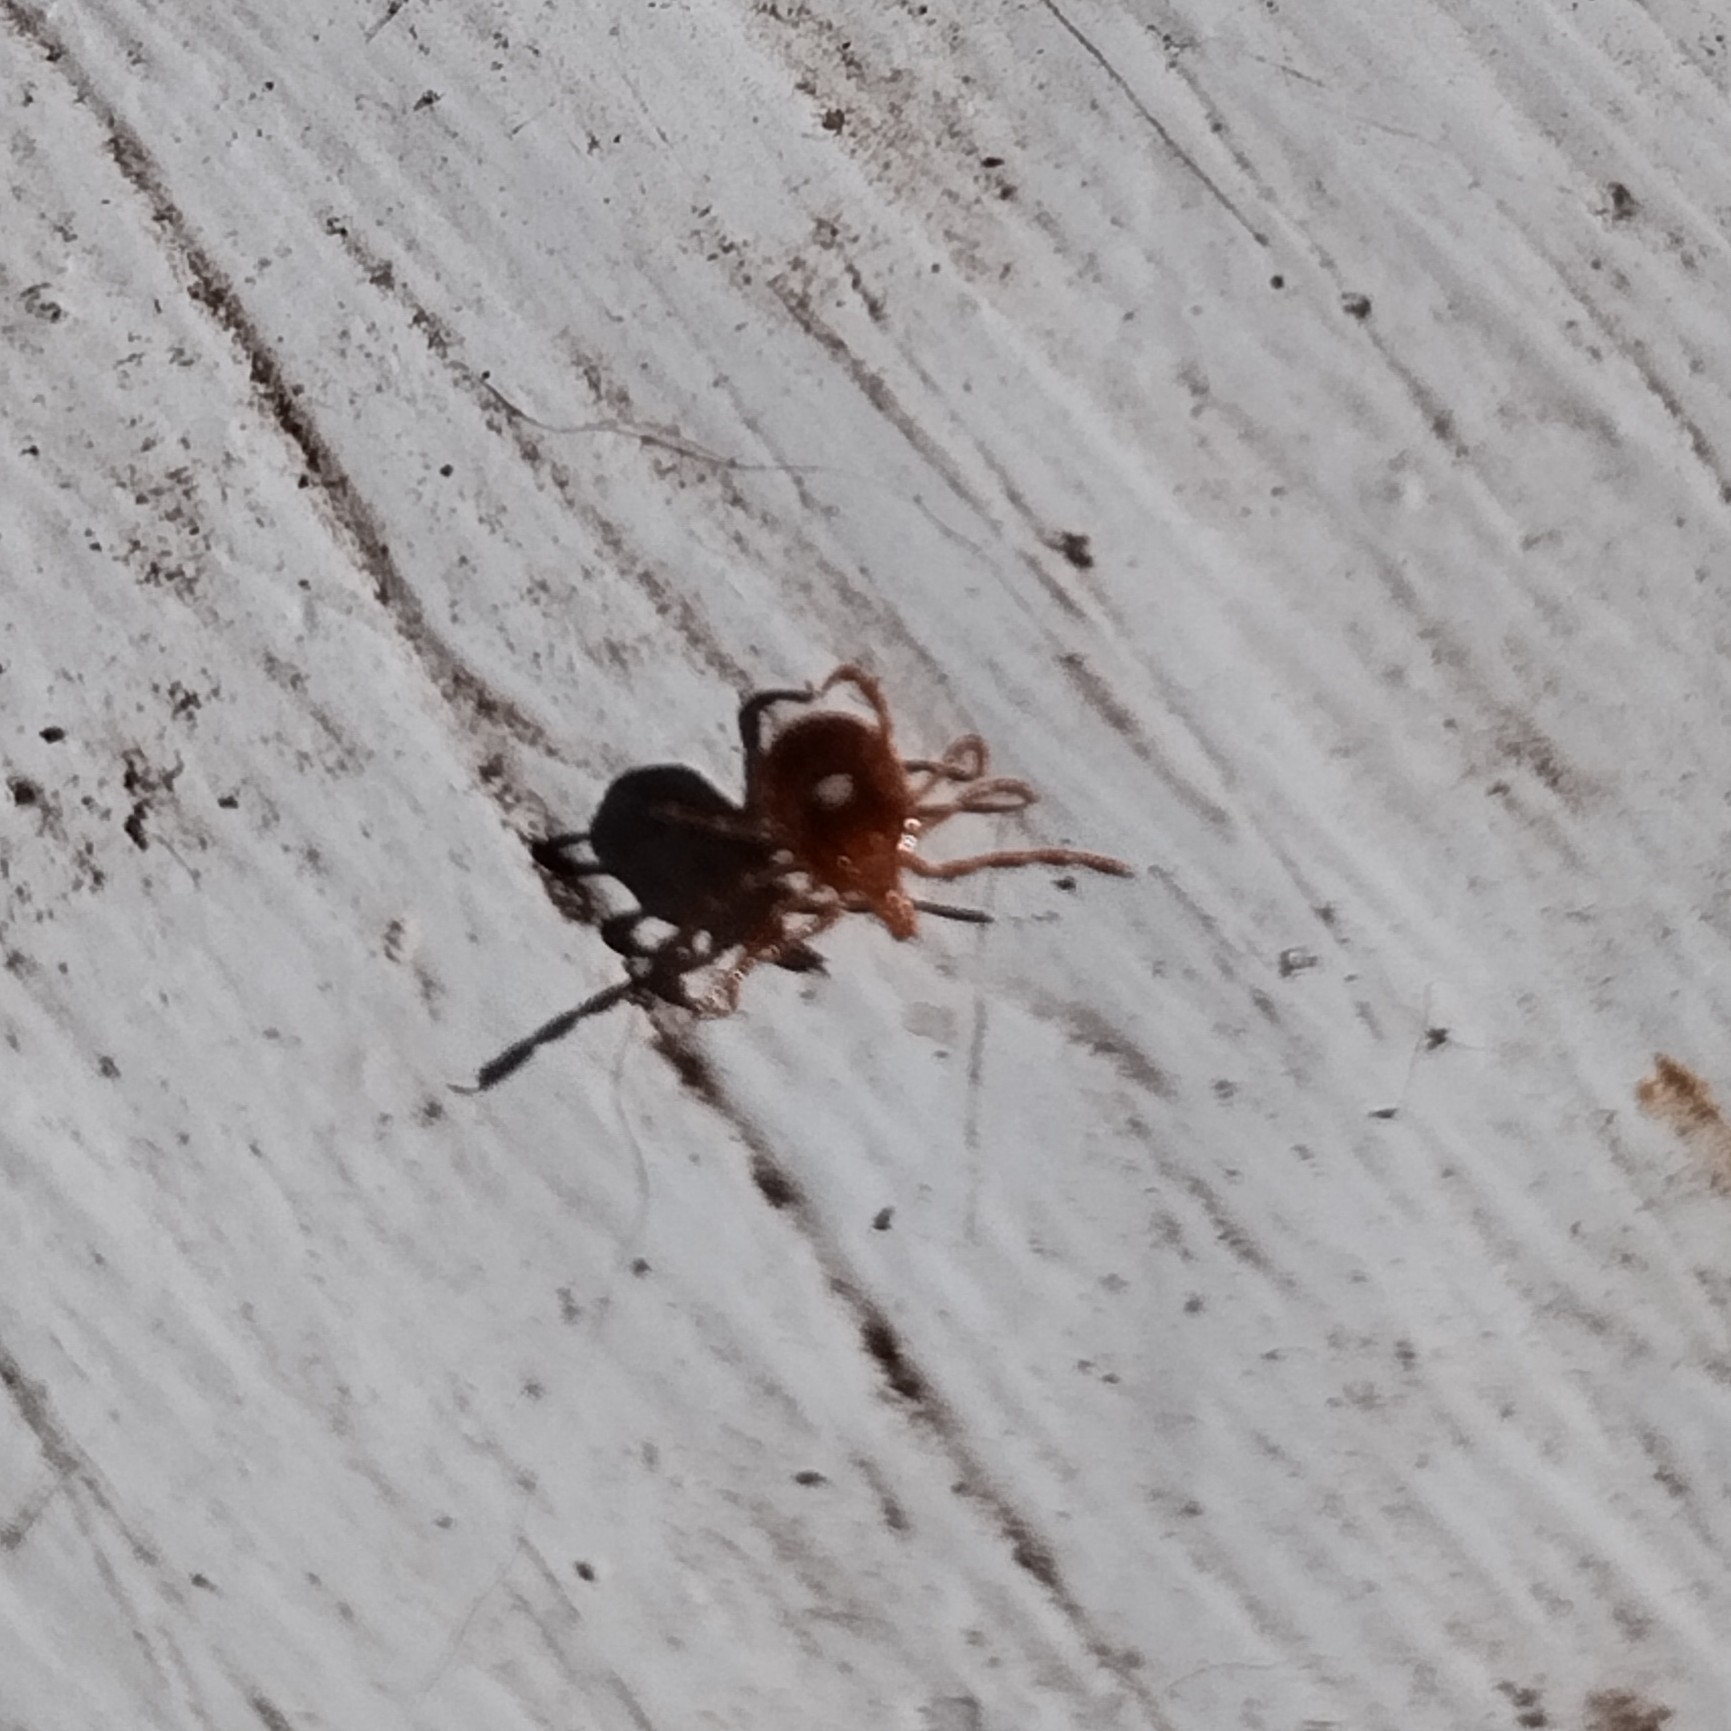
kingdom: Animalia
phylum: Arthropoda
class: Arachnida
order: Ixodida
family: Ixodidae
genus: Amblyomma
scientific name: Amblyomma americanum
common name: Lone star tick
